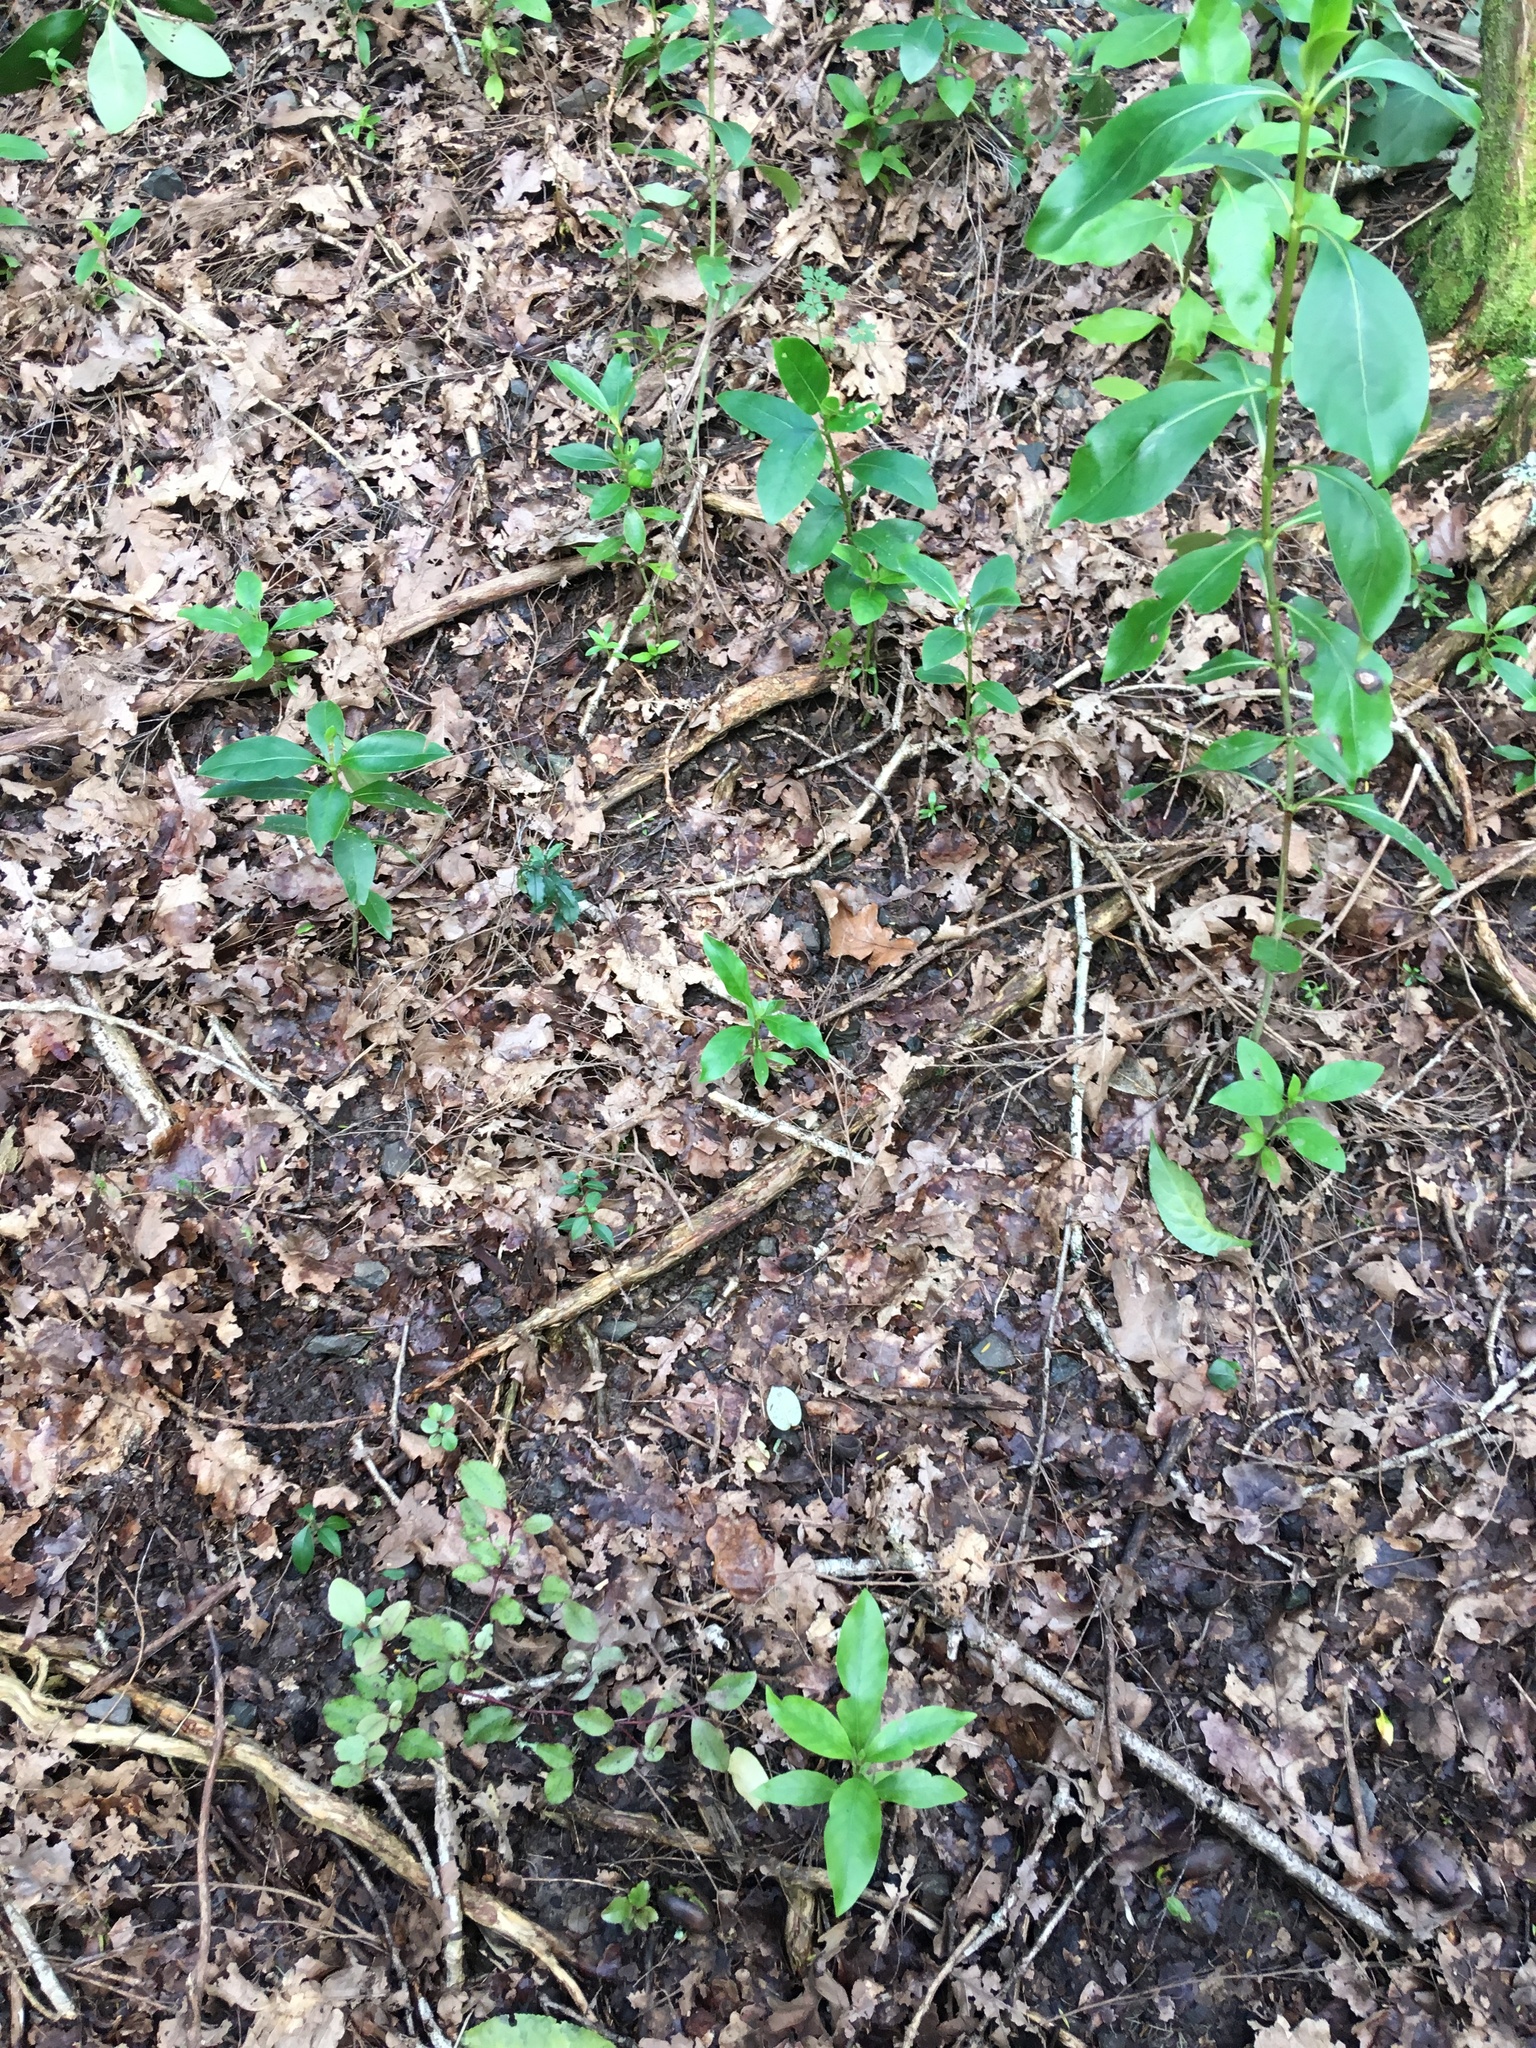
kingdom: Plantae
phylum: Tracheophyta
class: Magnoliopsida
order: Lamiales
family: Oleaceae
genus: Ligustrum
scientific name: Ligustrum lucidum
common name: Glossy privet
